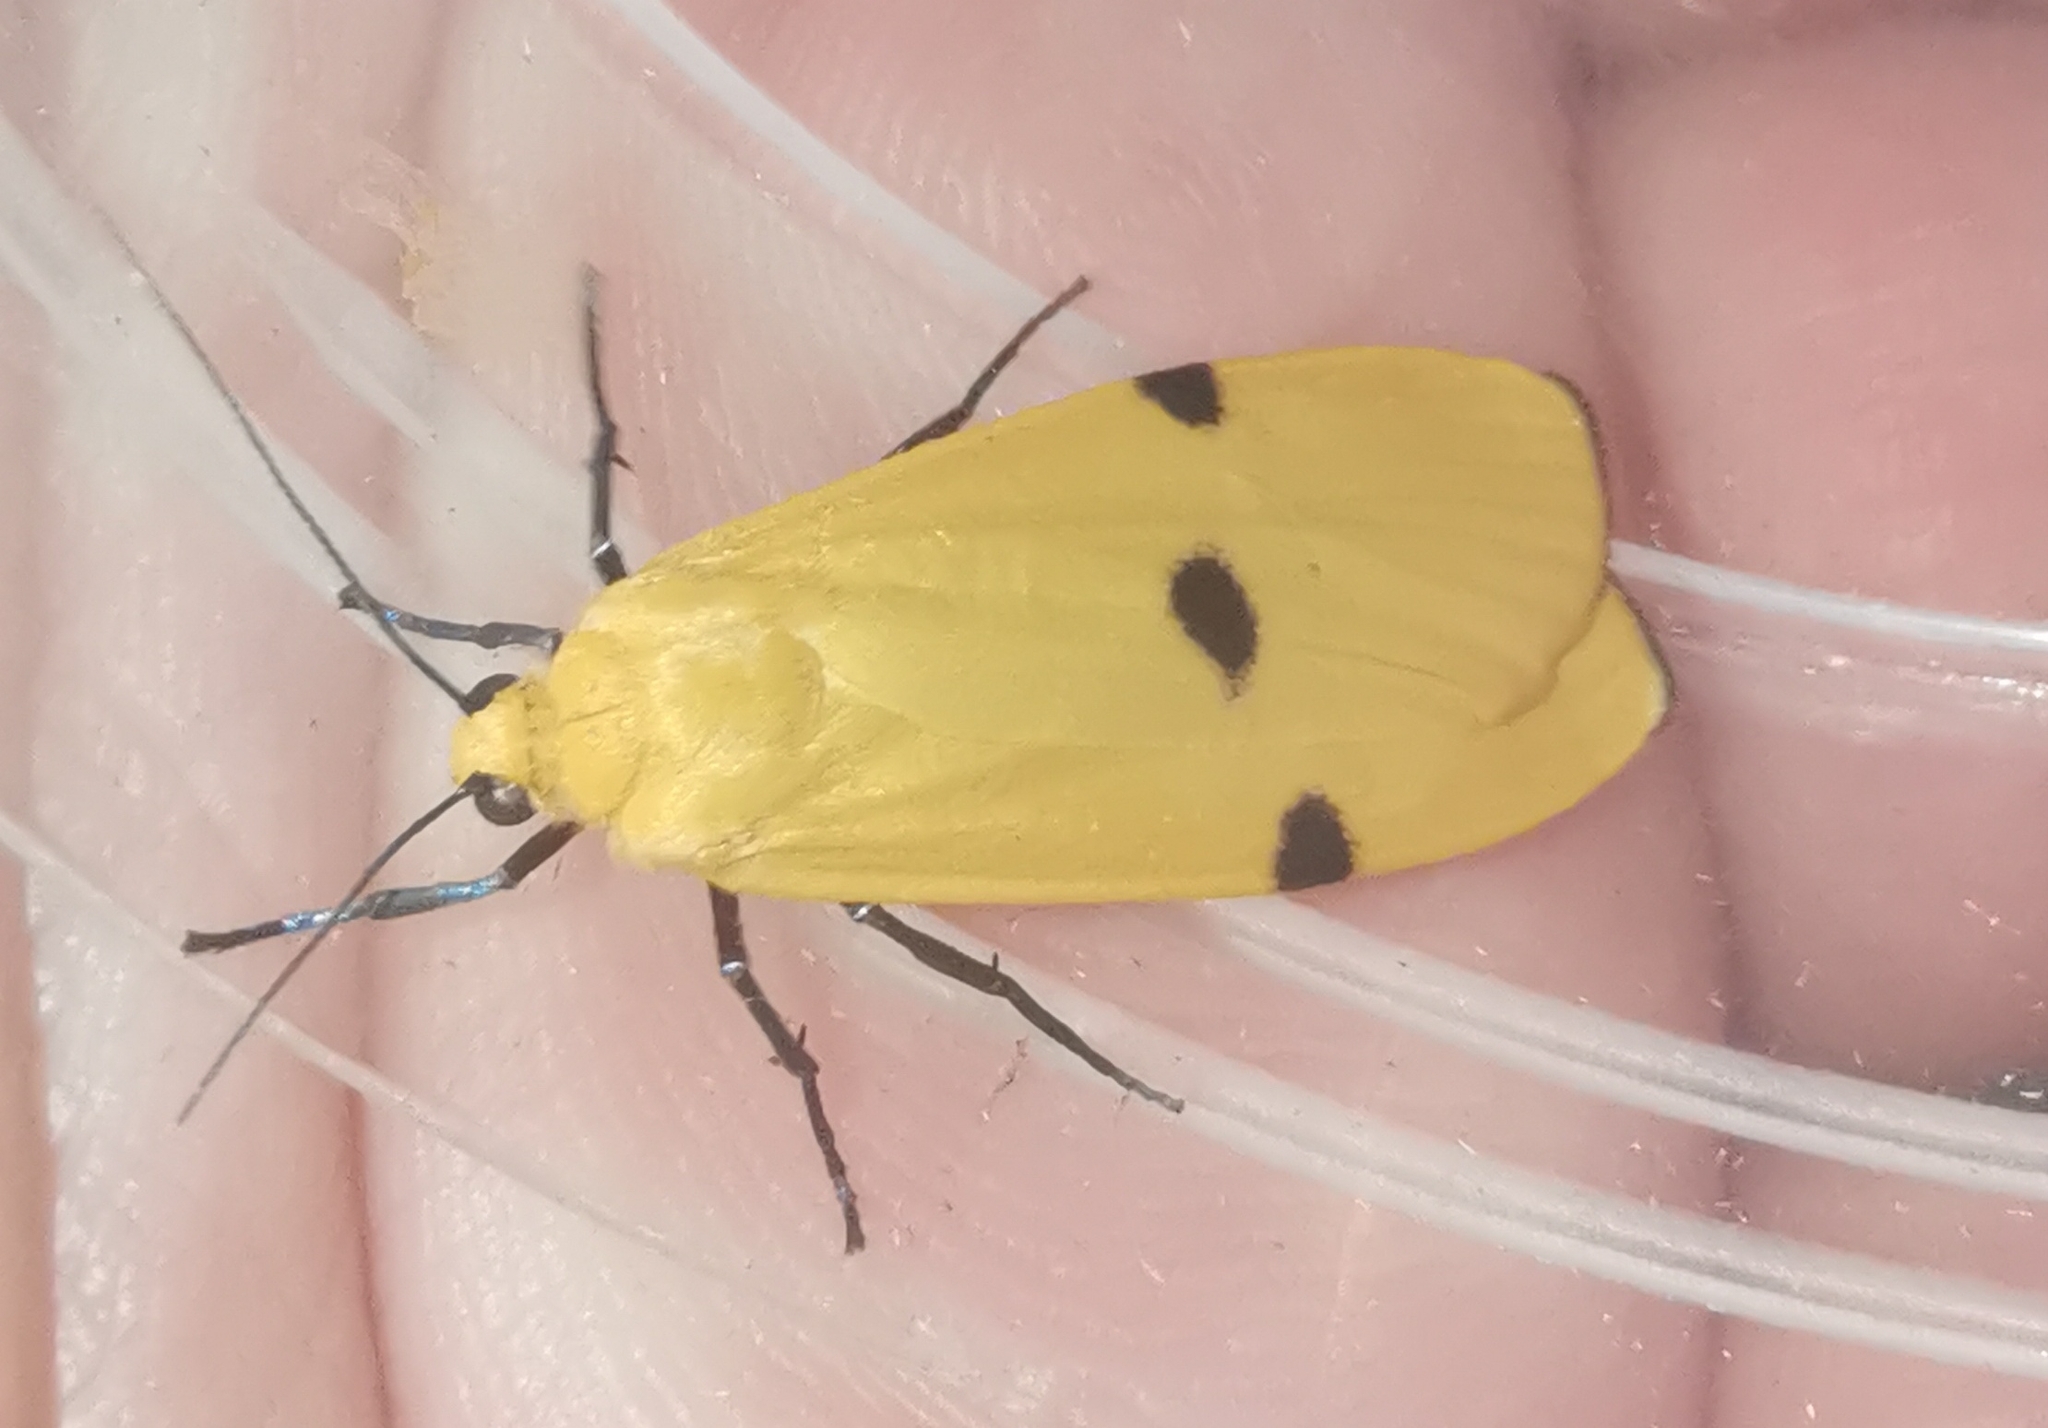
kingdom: Animalia
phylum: Arthropoda
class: Insecta
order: Lepidoptera
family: Erebidae
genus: Lithosia
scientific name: Lithosia quadra
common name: Four-spotted footman
